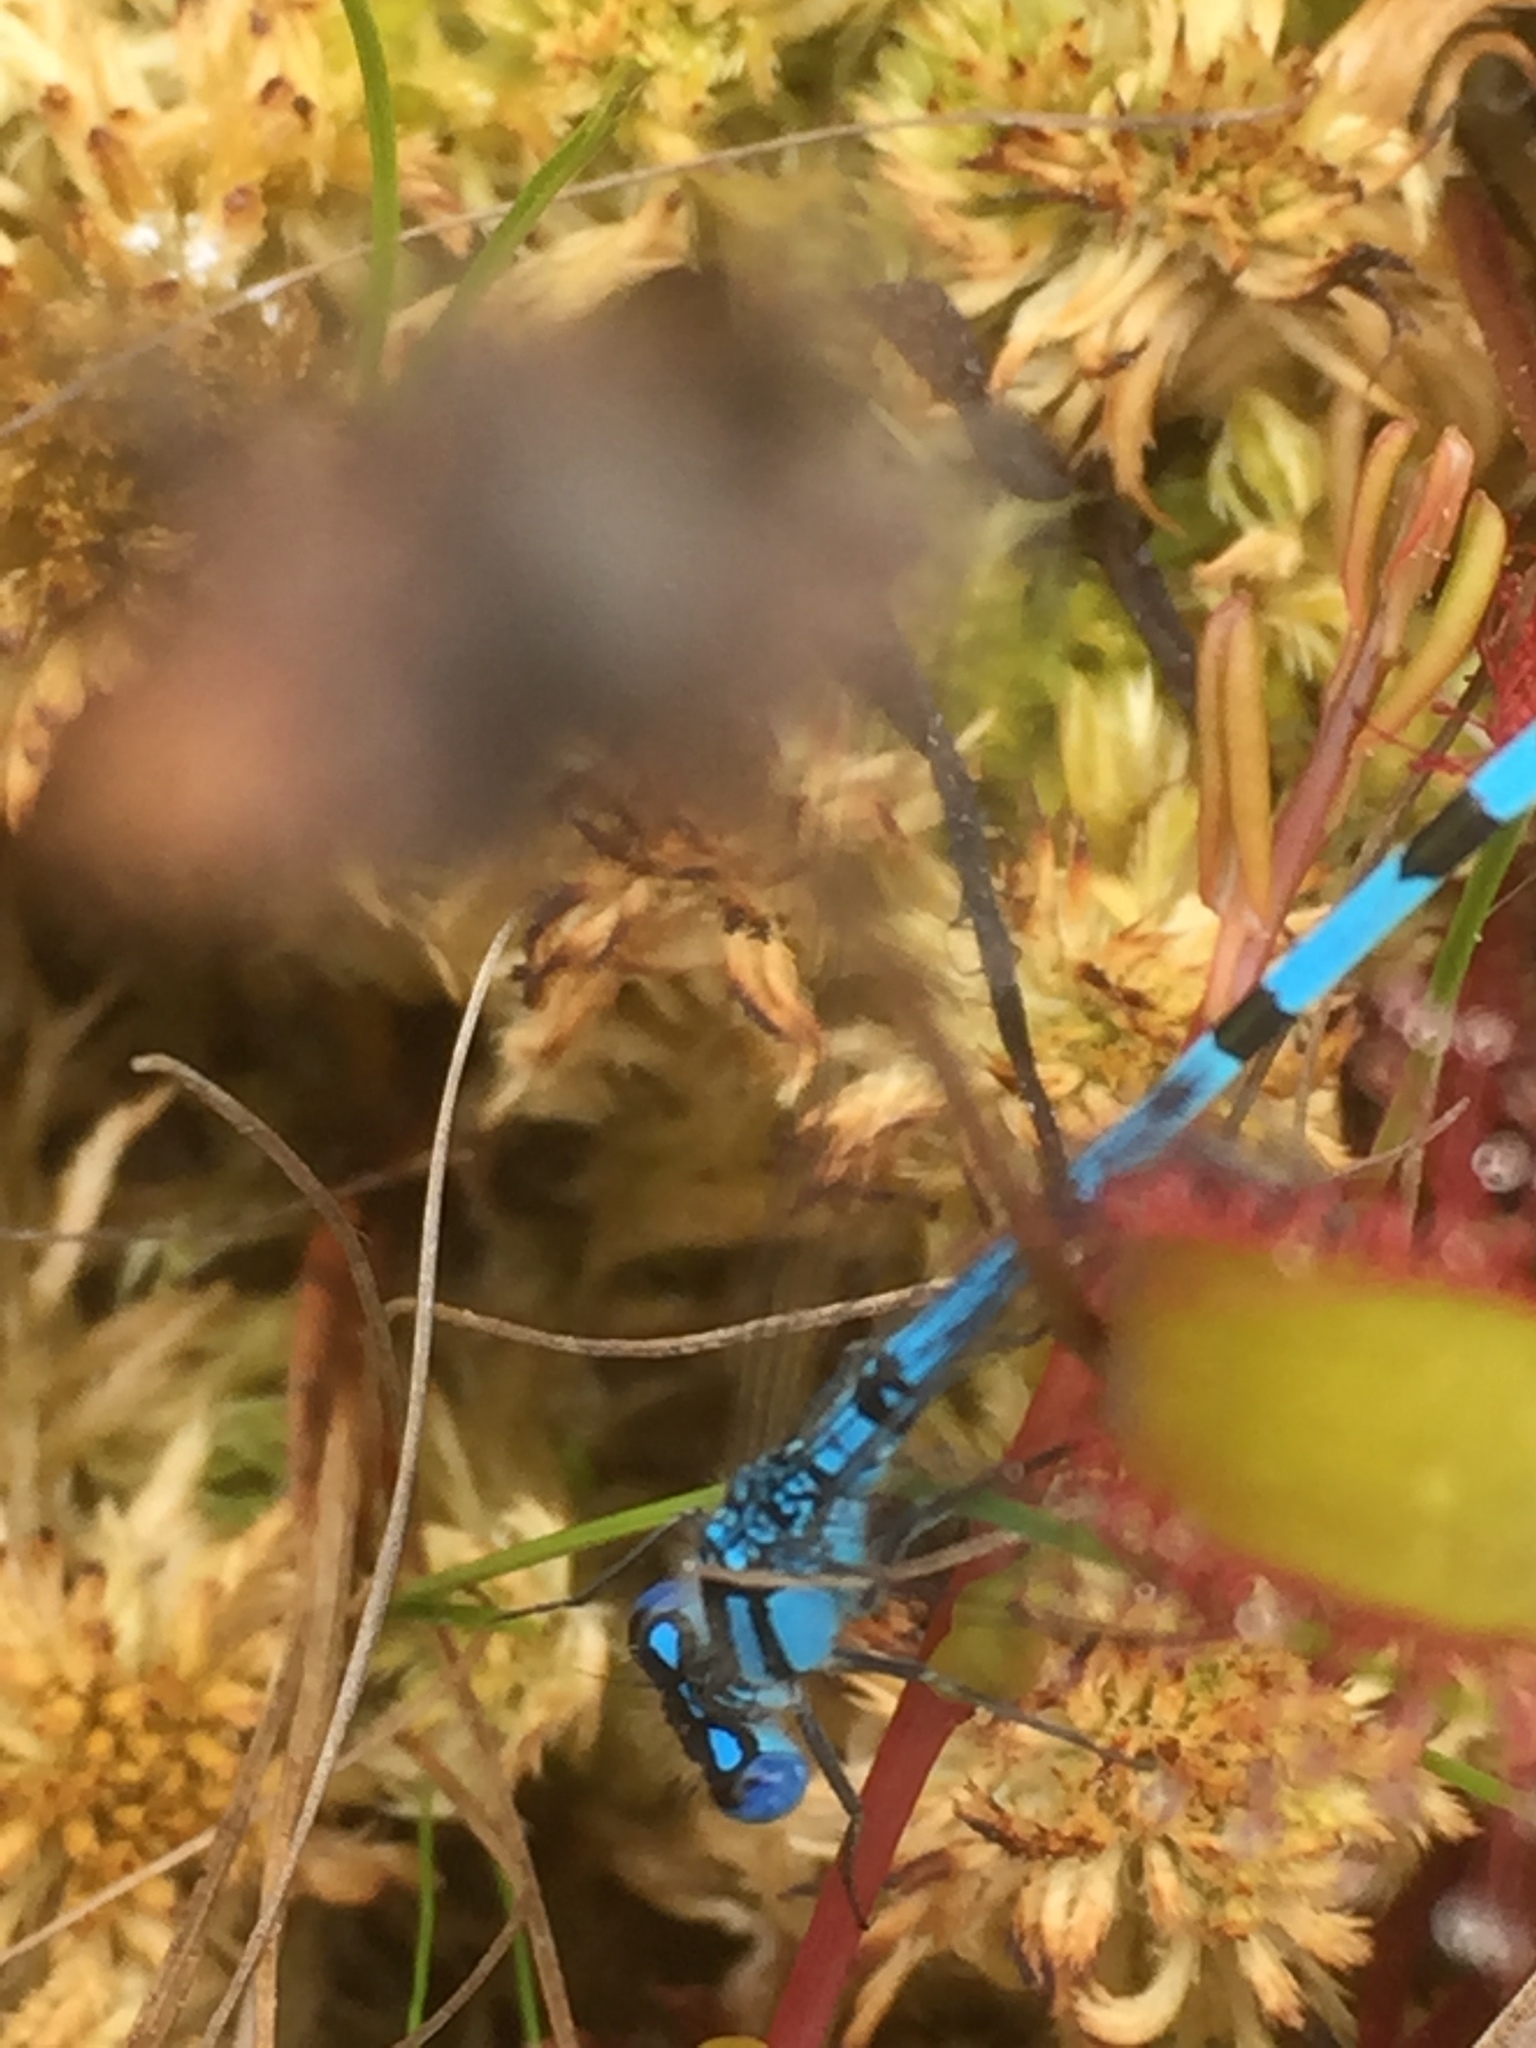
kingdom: Animalia
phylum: Arthropoda
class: Insecta
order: Odonata
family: Coenagrionidae
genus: Enallagma
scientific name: Enallagma cyathigerum
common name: Common blue damselfly
